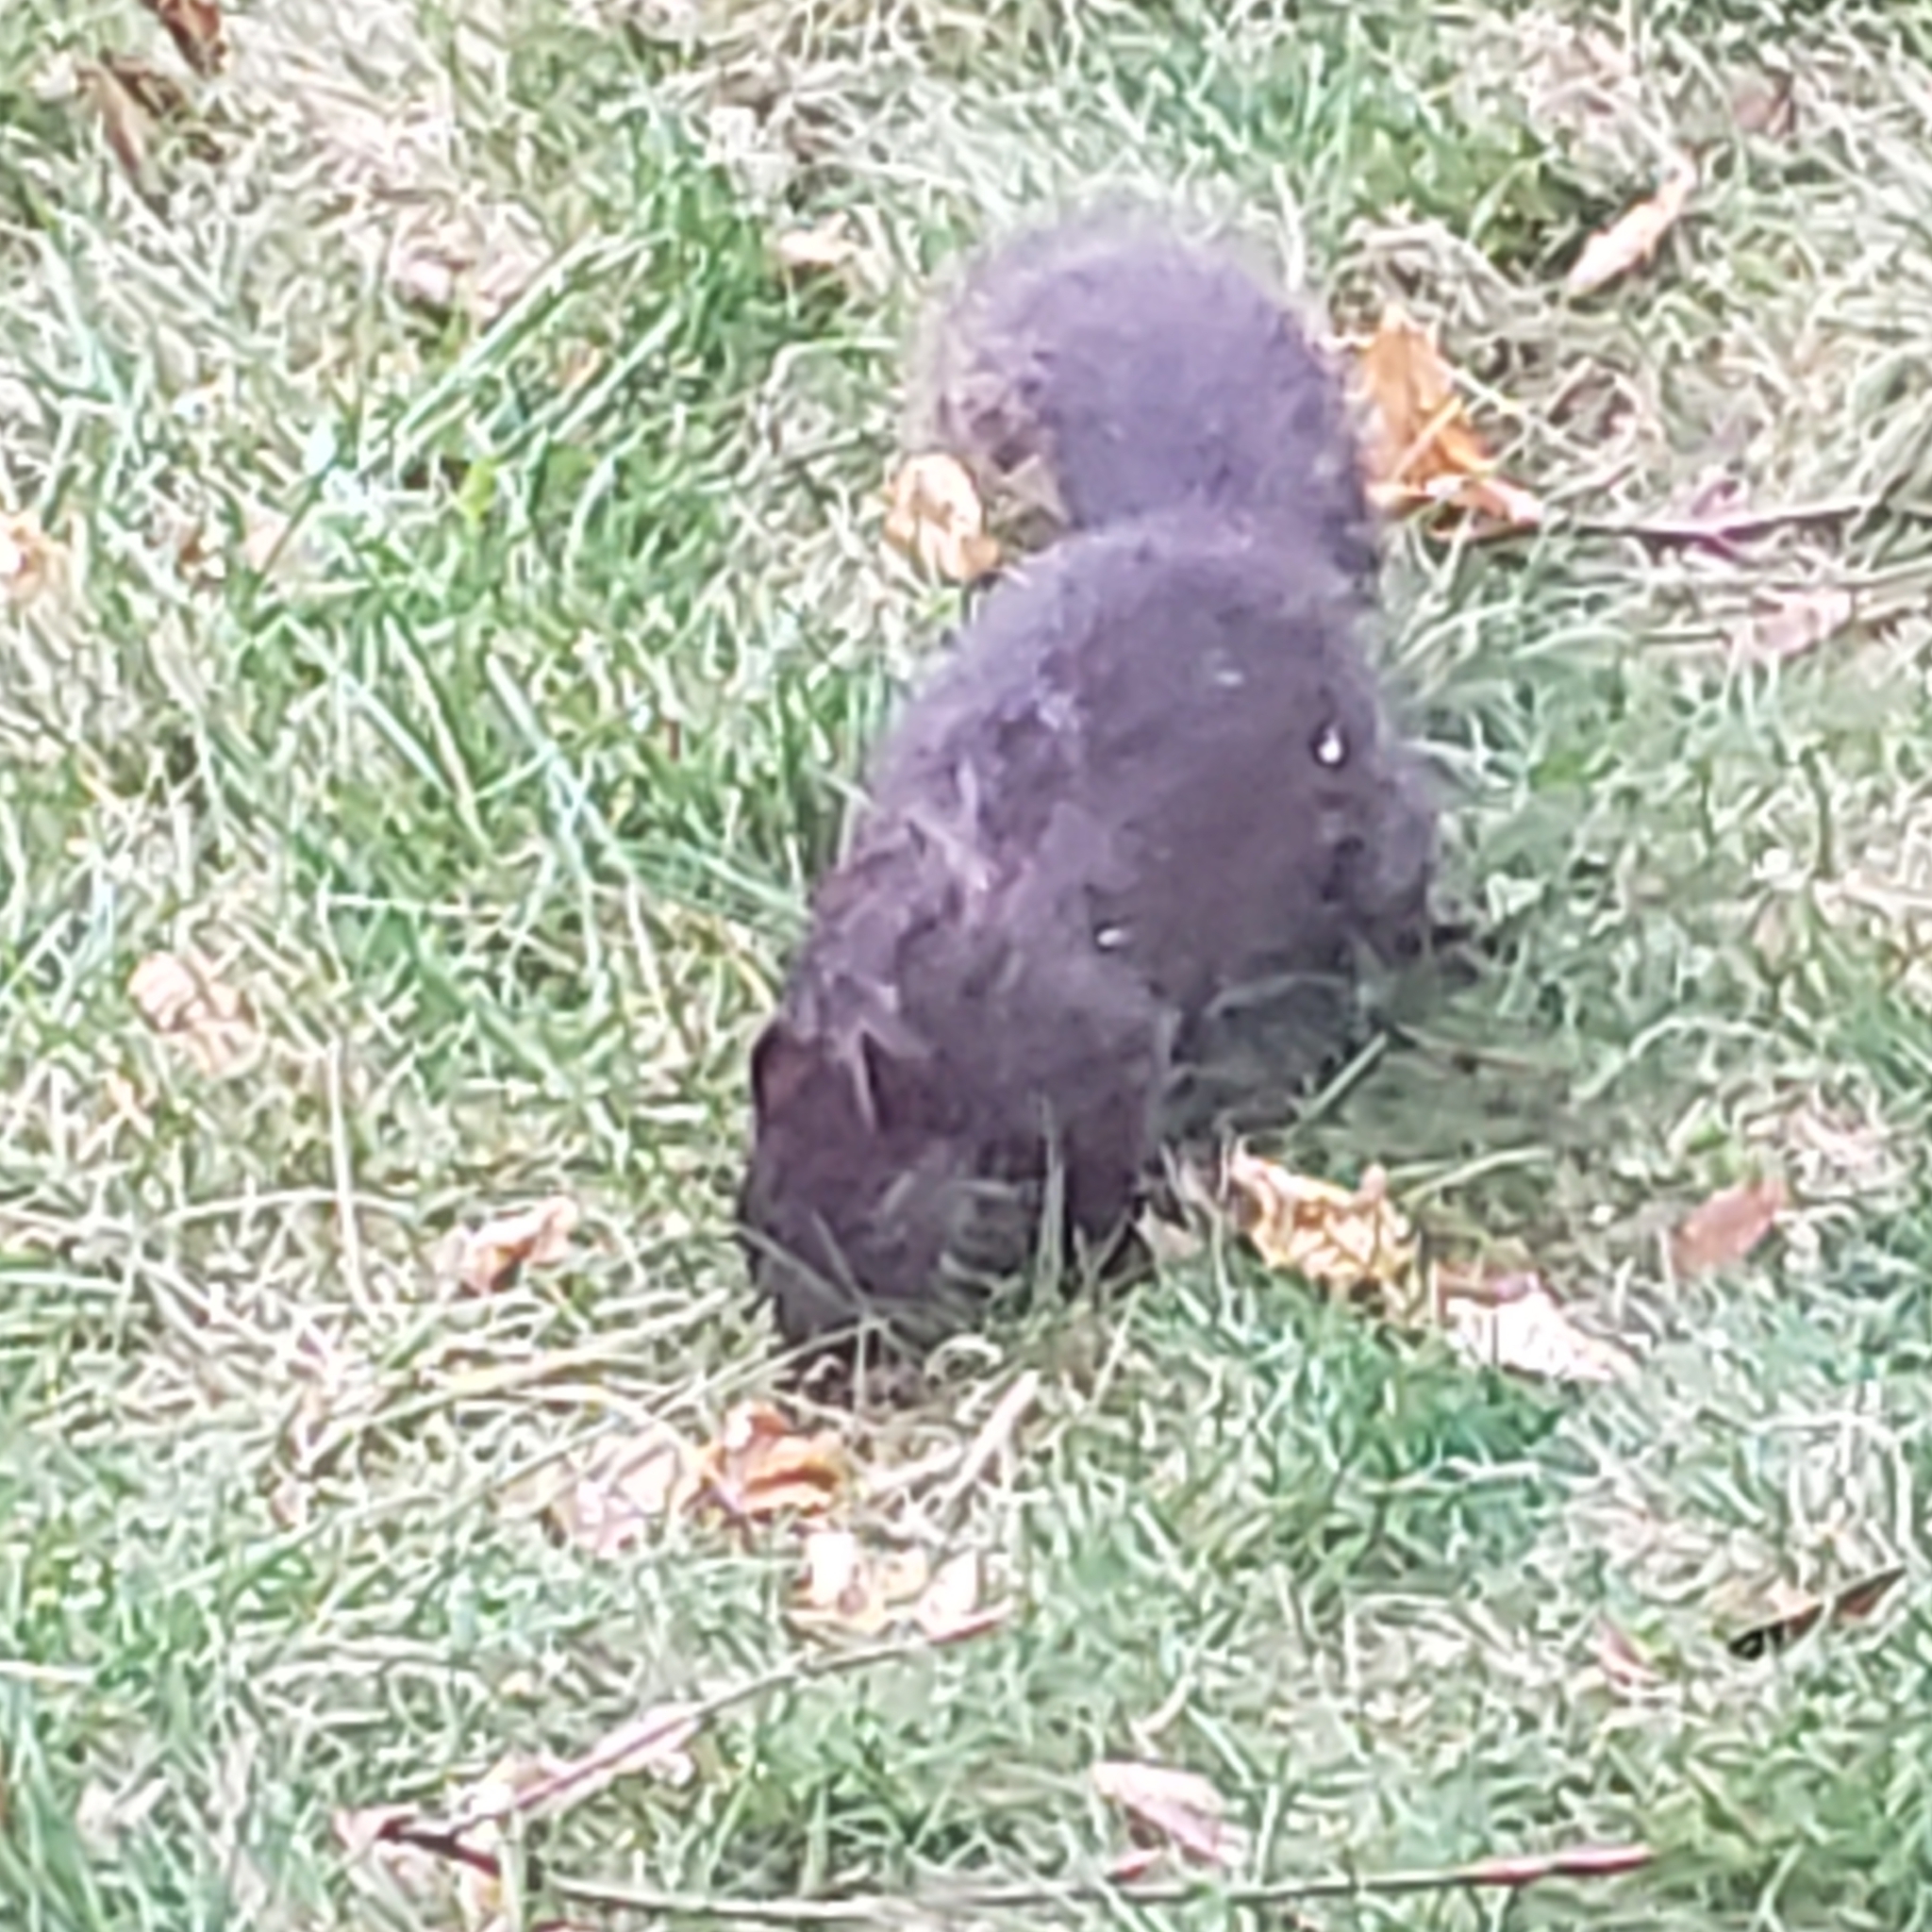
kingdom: Animalia
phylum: Chordata
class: Mammalia
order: Rodentia
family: Sciuridae
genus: Sciurus
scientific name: Sciurus carolinensis
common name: Eastern gray squirrel
